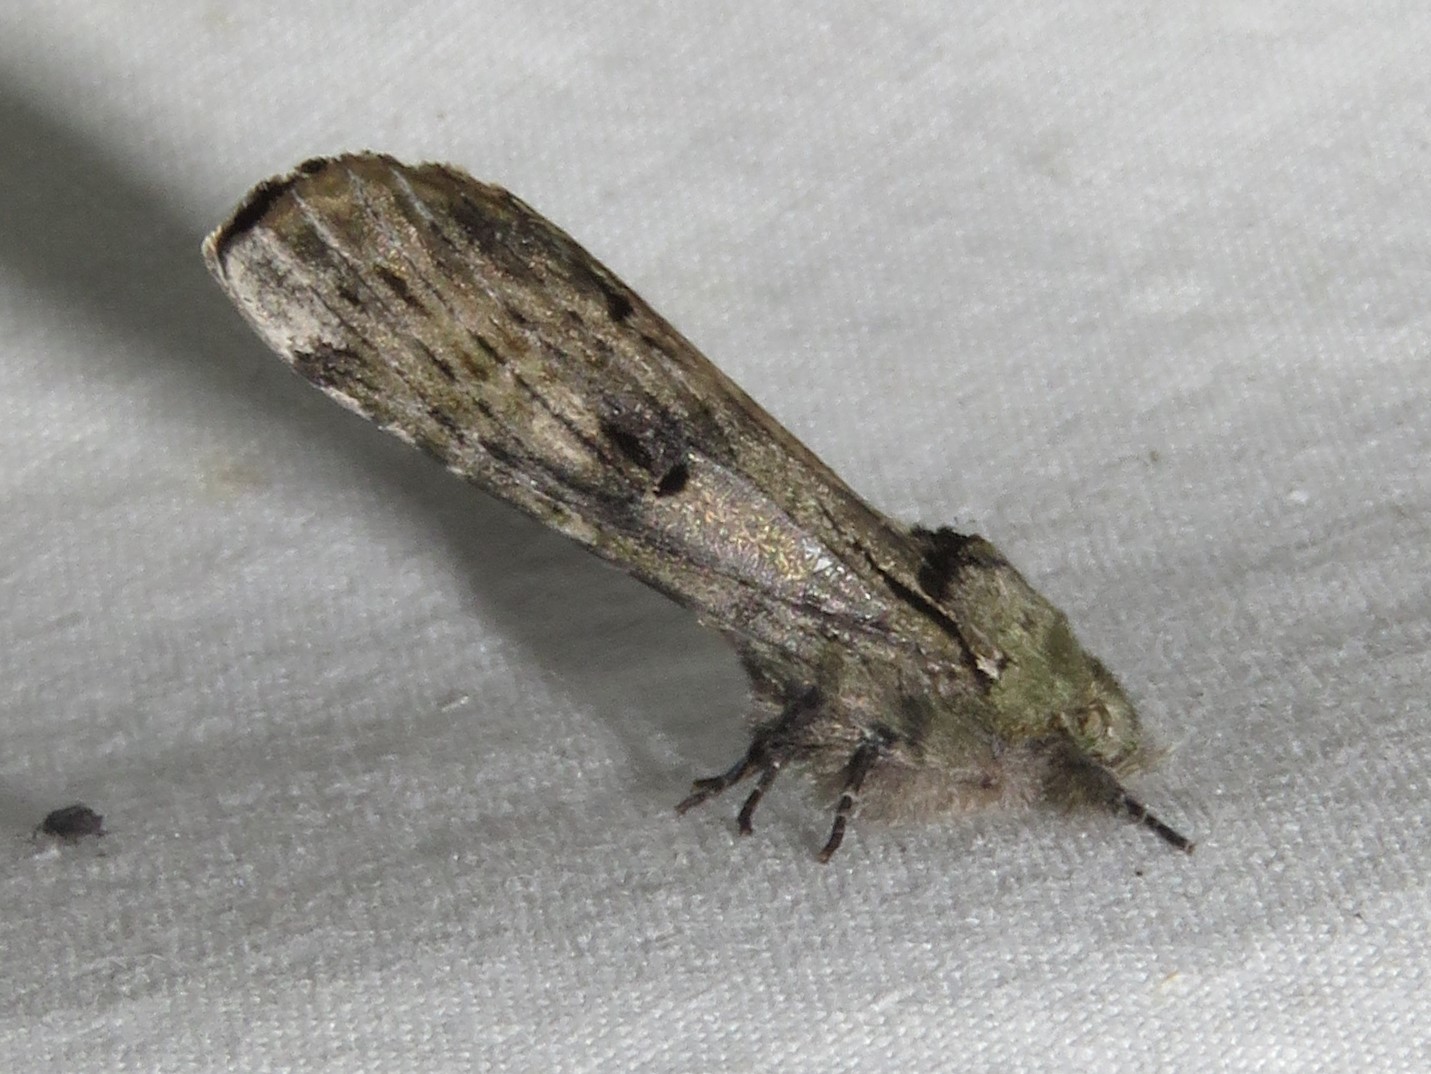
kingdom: Animalia
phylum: Arthropoda
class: Insecta
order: Lepidoptera
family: Notodontidae
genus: Schizura
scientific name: Schizura
